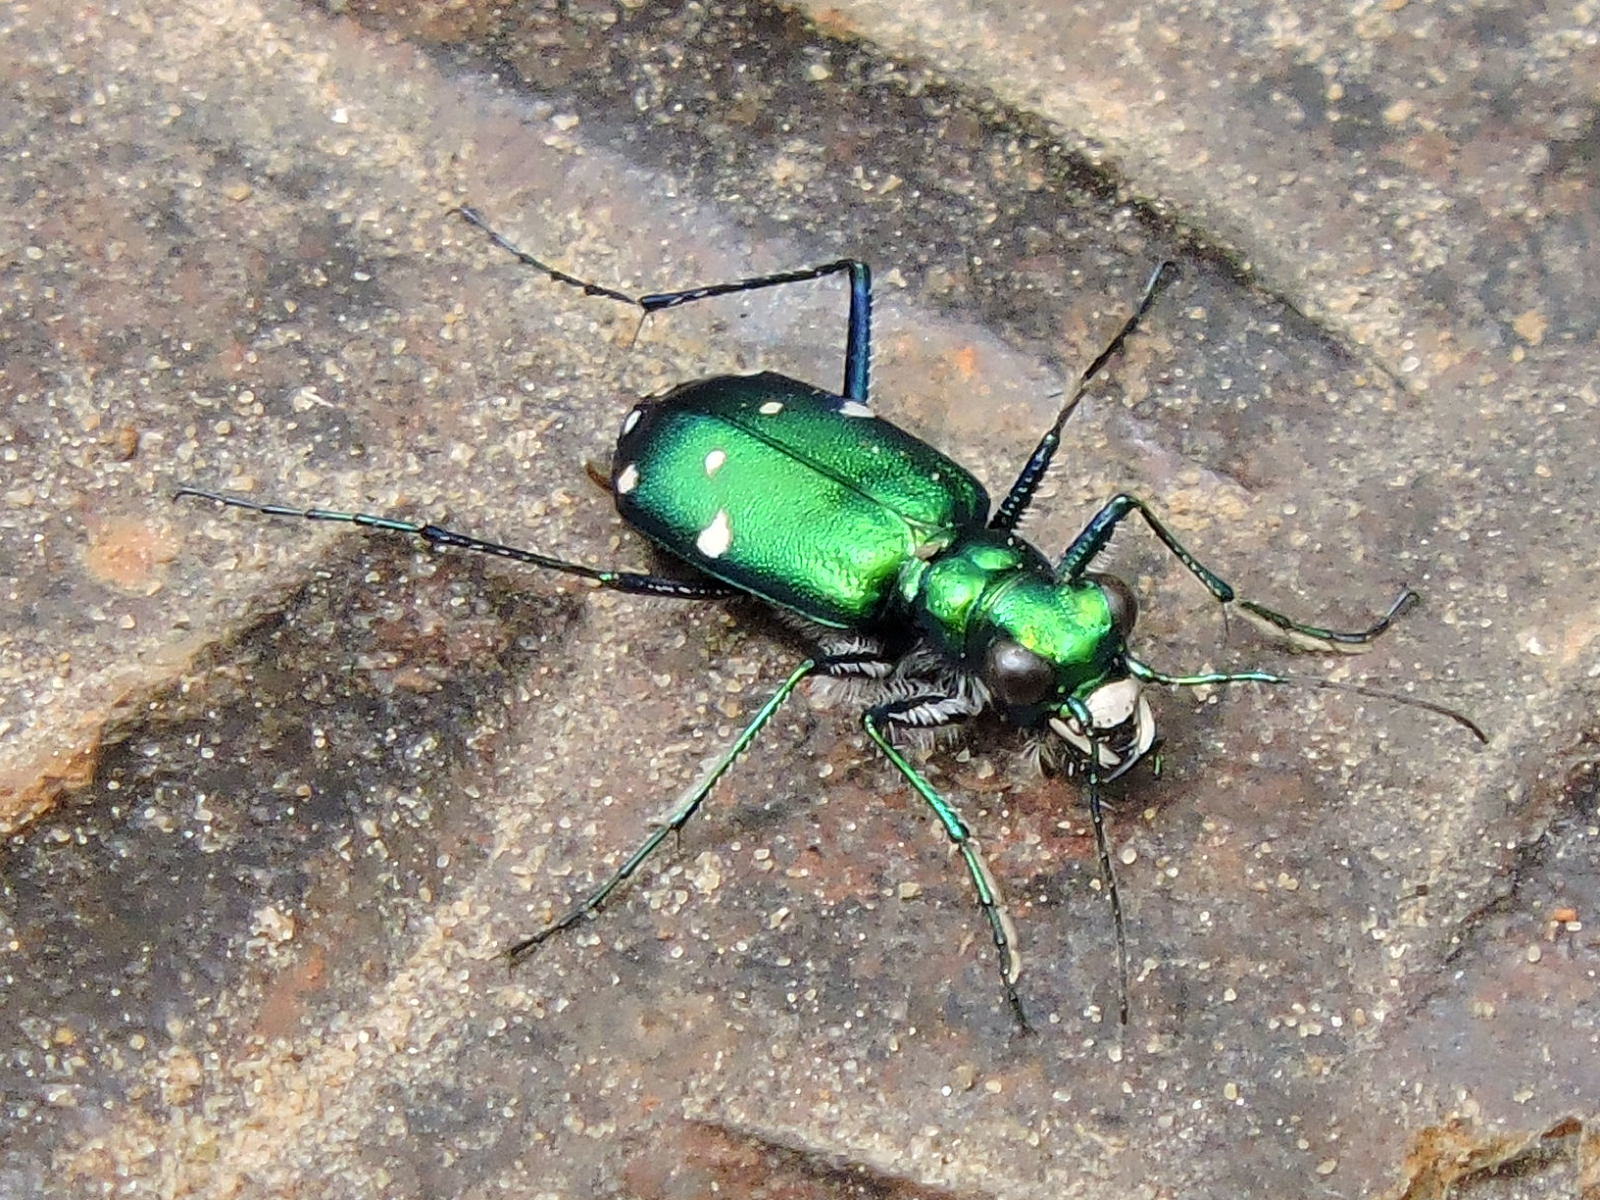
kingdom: Animalia
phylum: Arthropoda
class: Insecta
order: Coleoptera
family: Carabidae
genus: Cicindela
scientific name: Cicindela sexguttata
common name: Six-spotted tiger beetle
